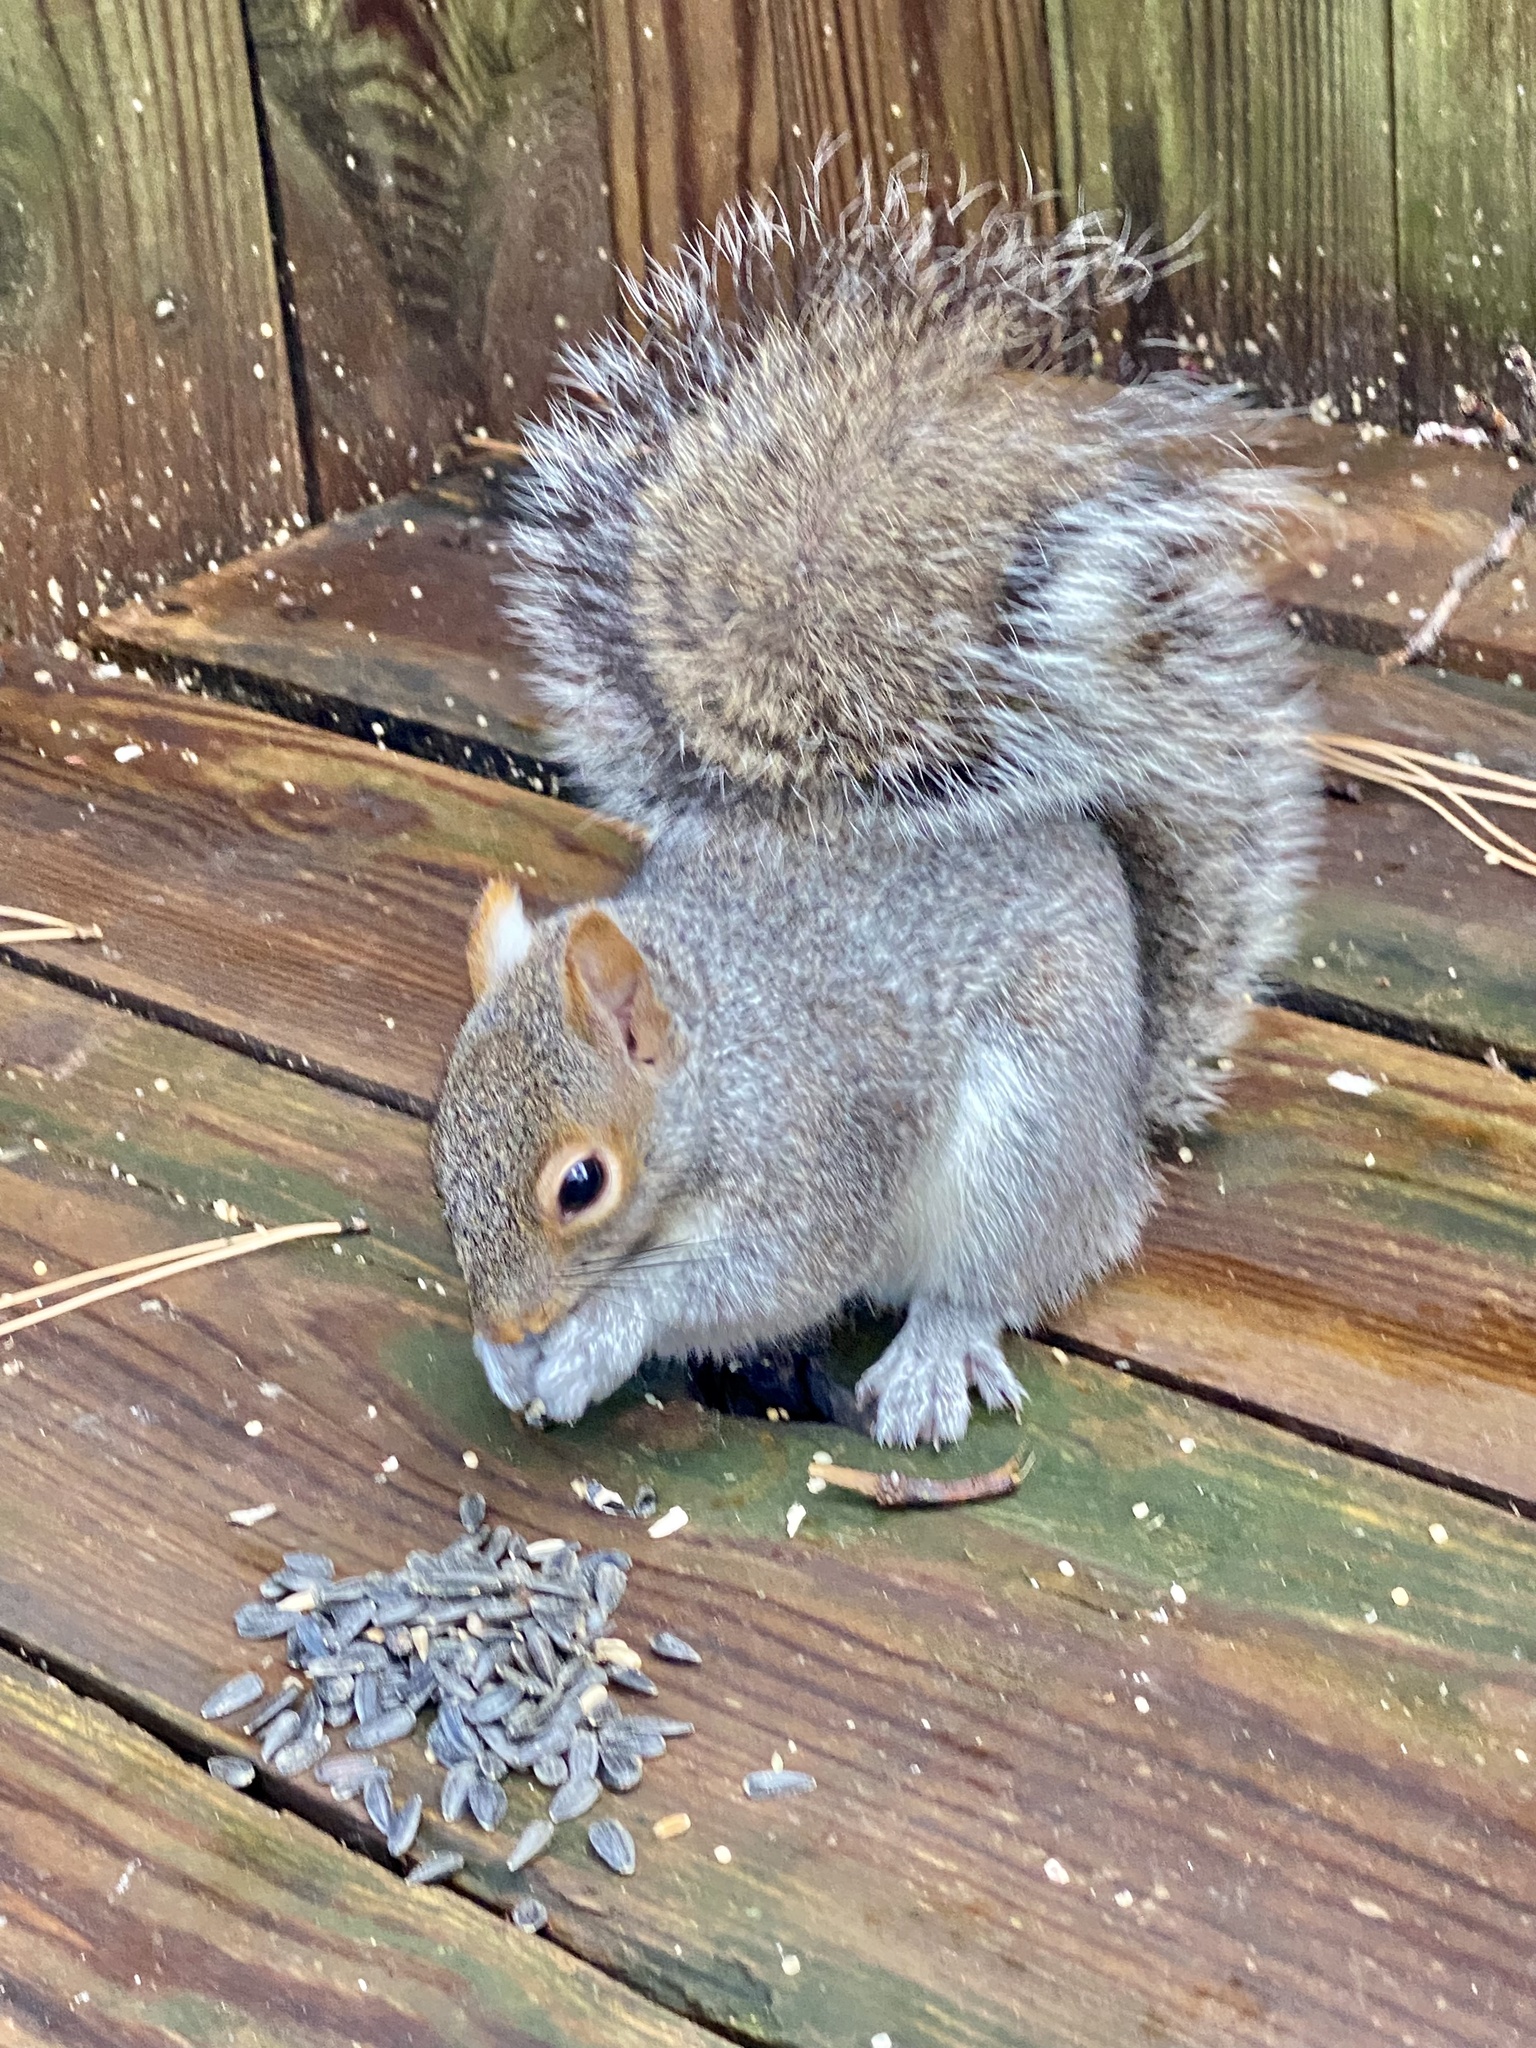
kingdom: Animalia
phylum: Chordata
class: Mammalia
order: Rodentia
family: Sciuridae
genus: Sciurus
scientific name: Sciurus carolinensis
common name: Eastern gray squirrel
